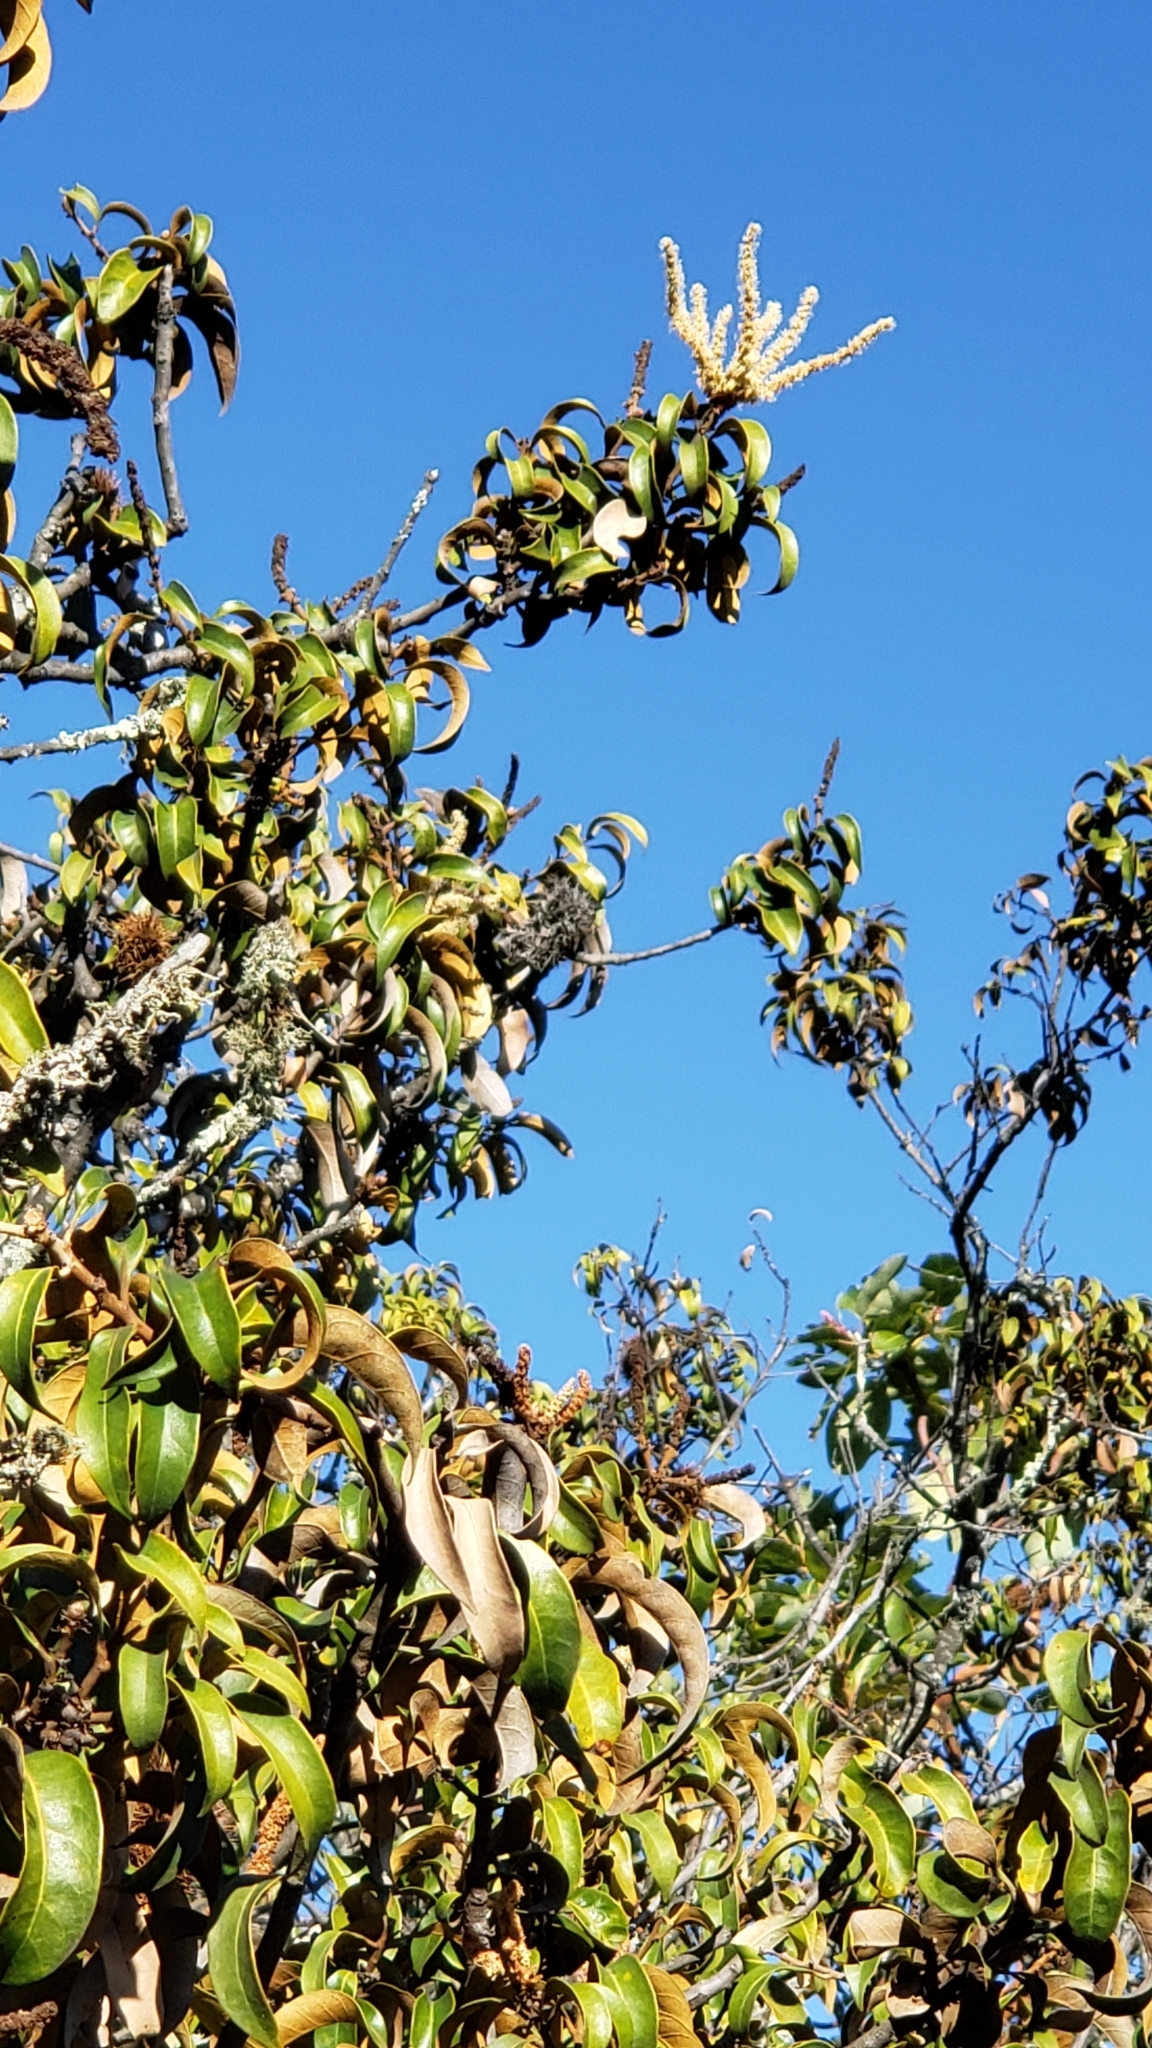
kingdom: Plantae
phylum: Tracheophyta
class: Magnoliopsida
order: Fagales
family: Fagaceae
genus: Chrysolepis
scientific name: Chrysolepis chrysophylla
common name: Giant chinquapin
